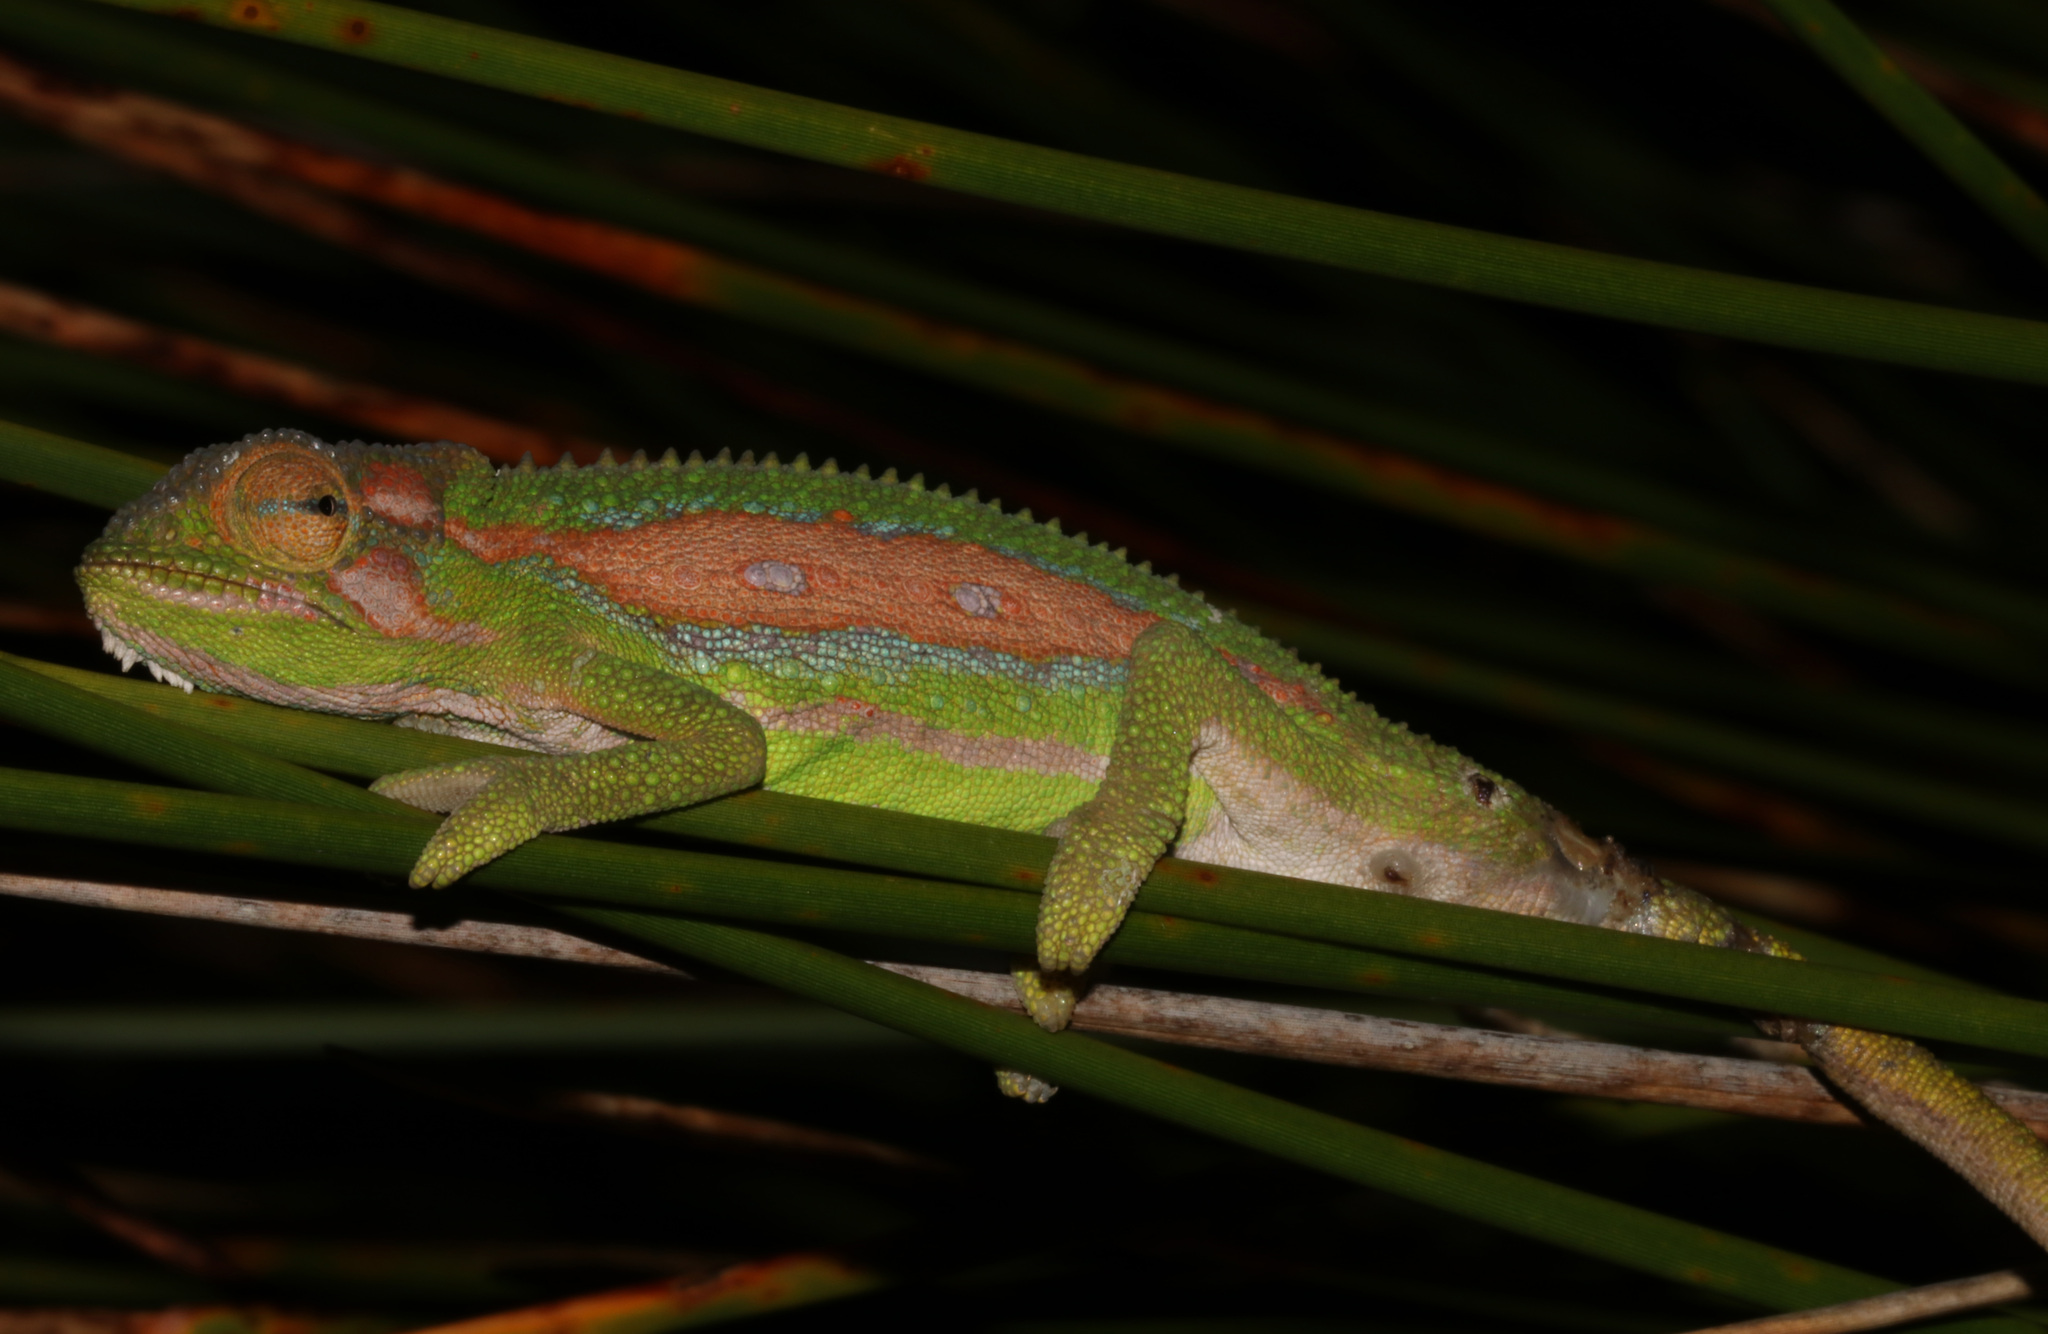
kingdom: Animalia
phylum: Chordata
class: Squamata
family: Chamaeleonidae
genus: Bradypodion
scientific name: Bradypodion pumilum
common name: Cape dwarf chameleon
